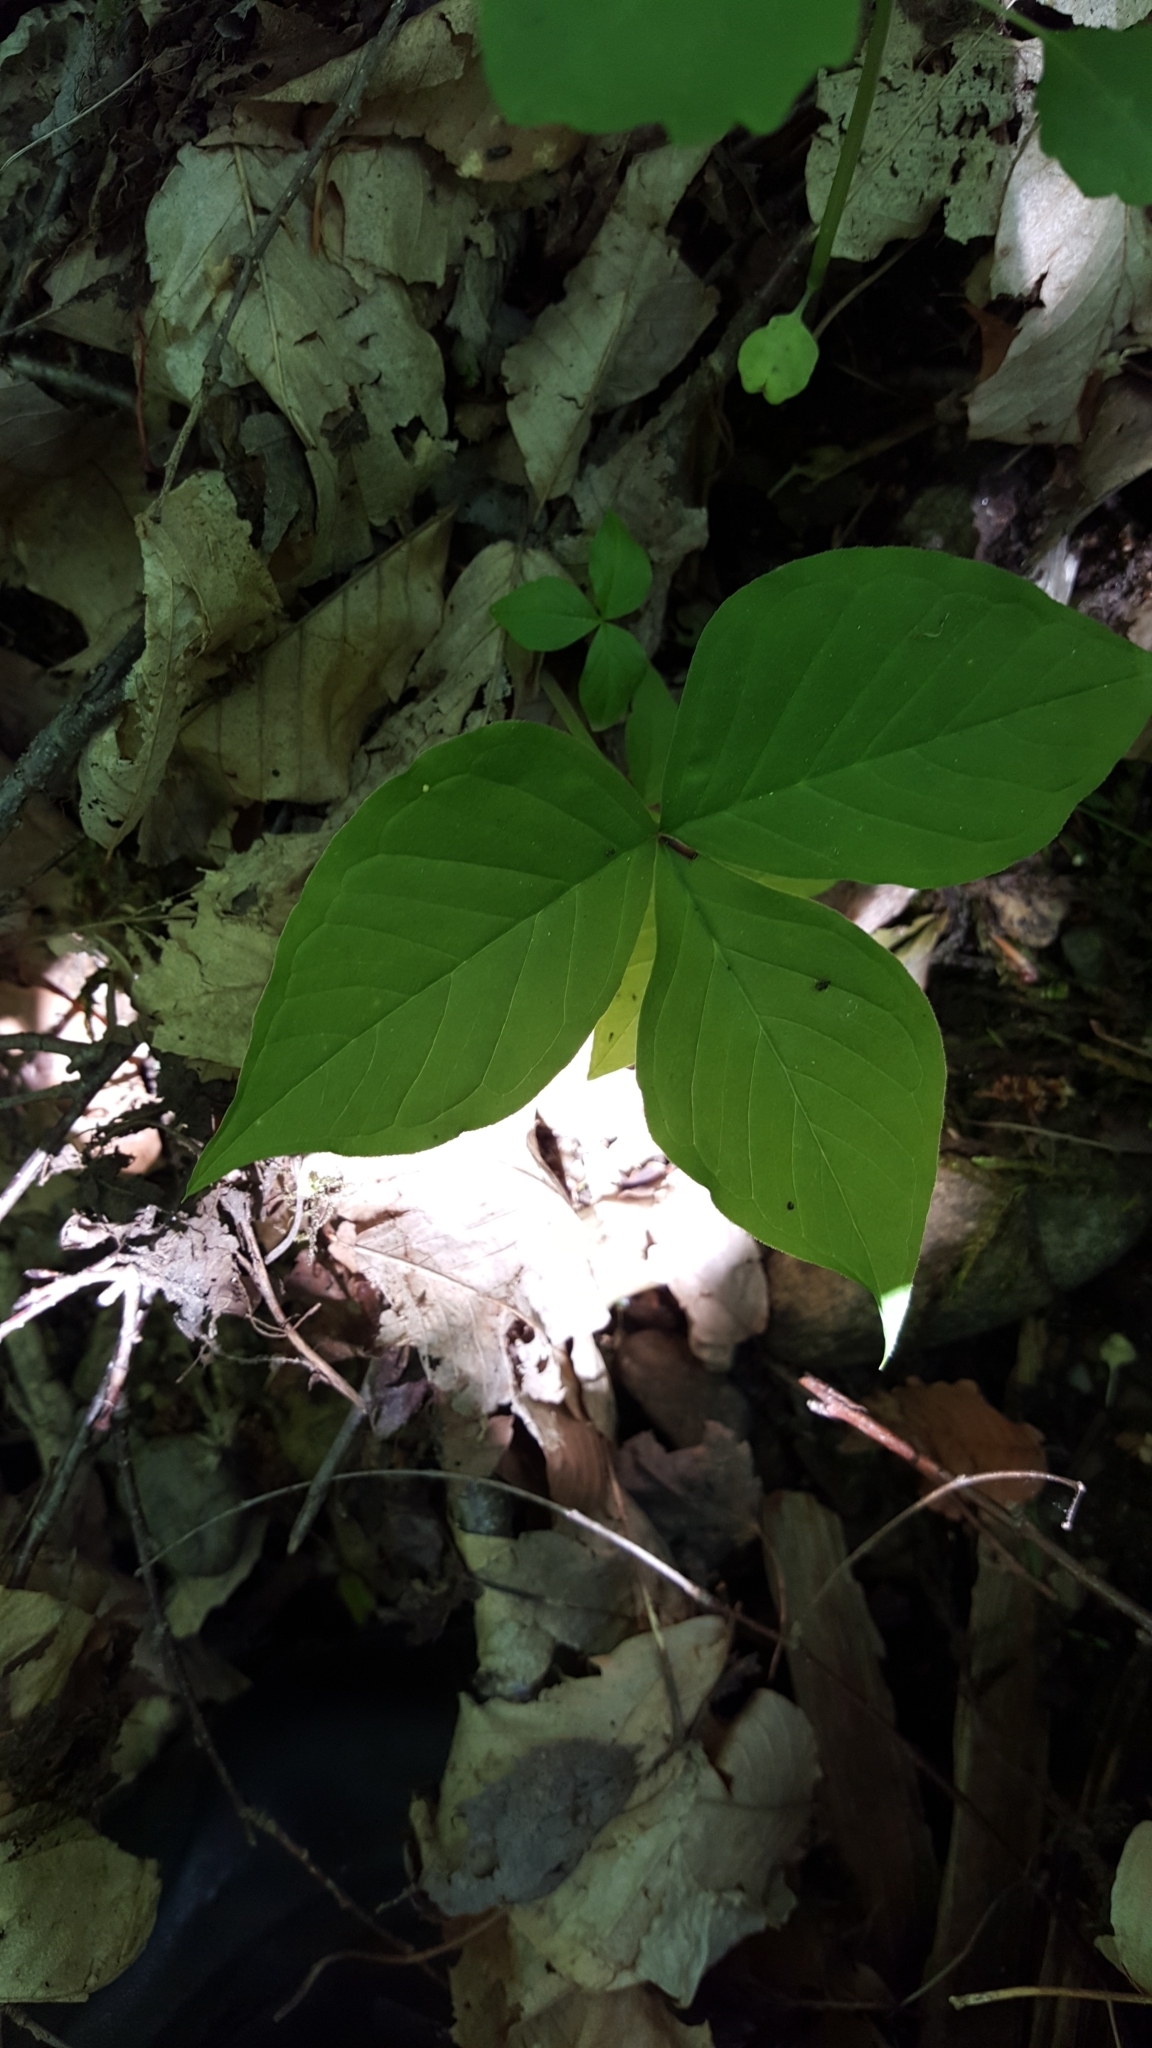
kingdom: Plantae
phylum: Tracheophyta
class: Liliopsida
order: Alismatales
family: Araceae
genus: Arisaema
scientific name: Arisaema triphyllum
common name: Jack-in-the-pulpit
